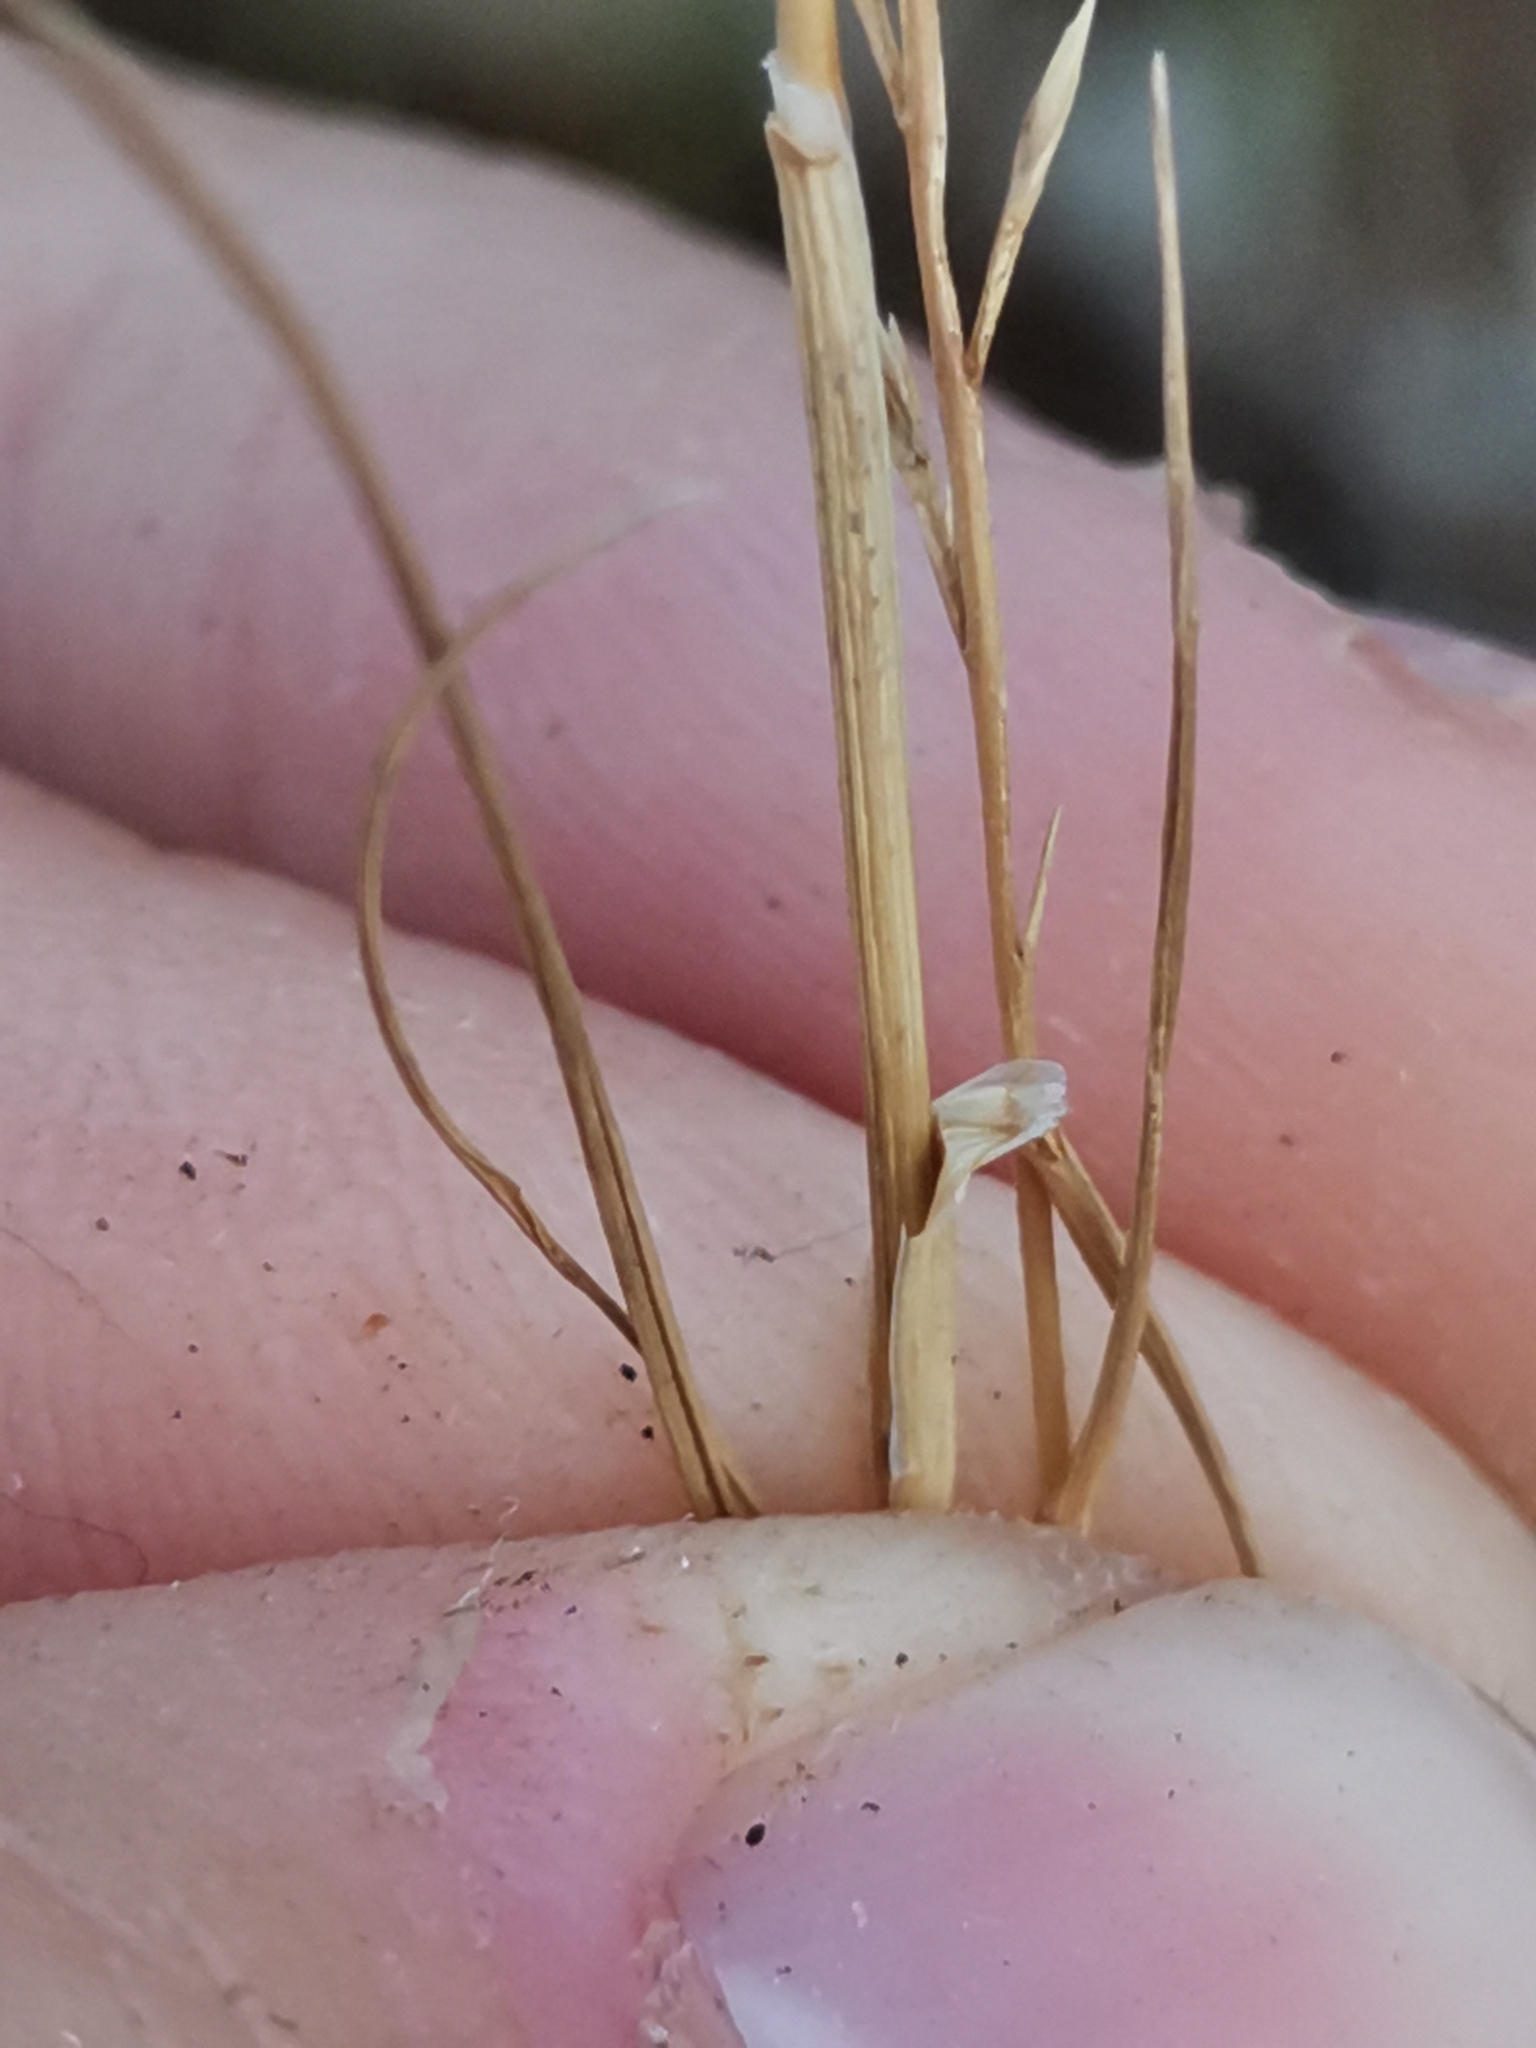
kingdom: Plantae
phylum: Tracheophyta
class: Liliopsida
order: Poales
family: Poaceae
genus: Catapodium
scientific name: Catapodium rigidum
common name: Fern-grass
